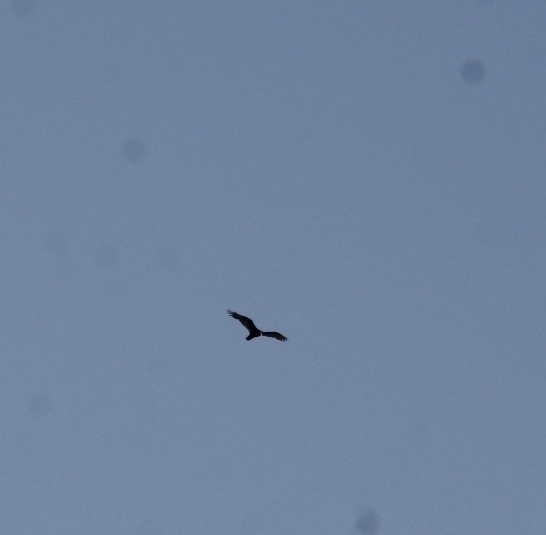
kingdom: Animalia
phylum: Chordata
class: Aves
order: Accipitriformes
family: Cathartidae
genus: Cathartes
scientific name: Cathartes aura
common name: Turkey vulture
